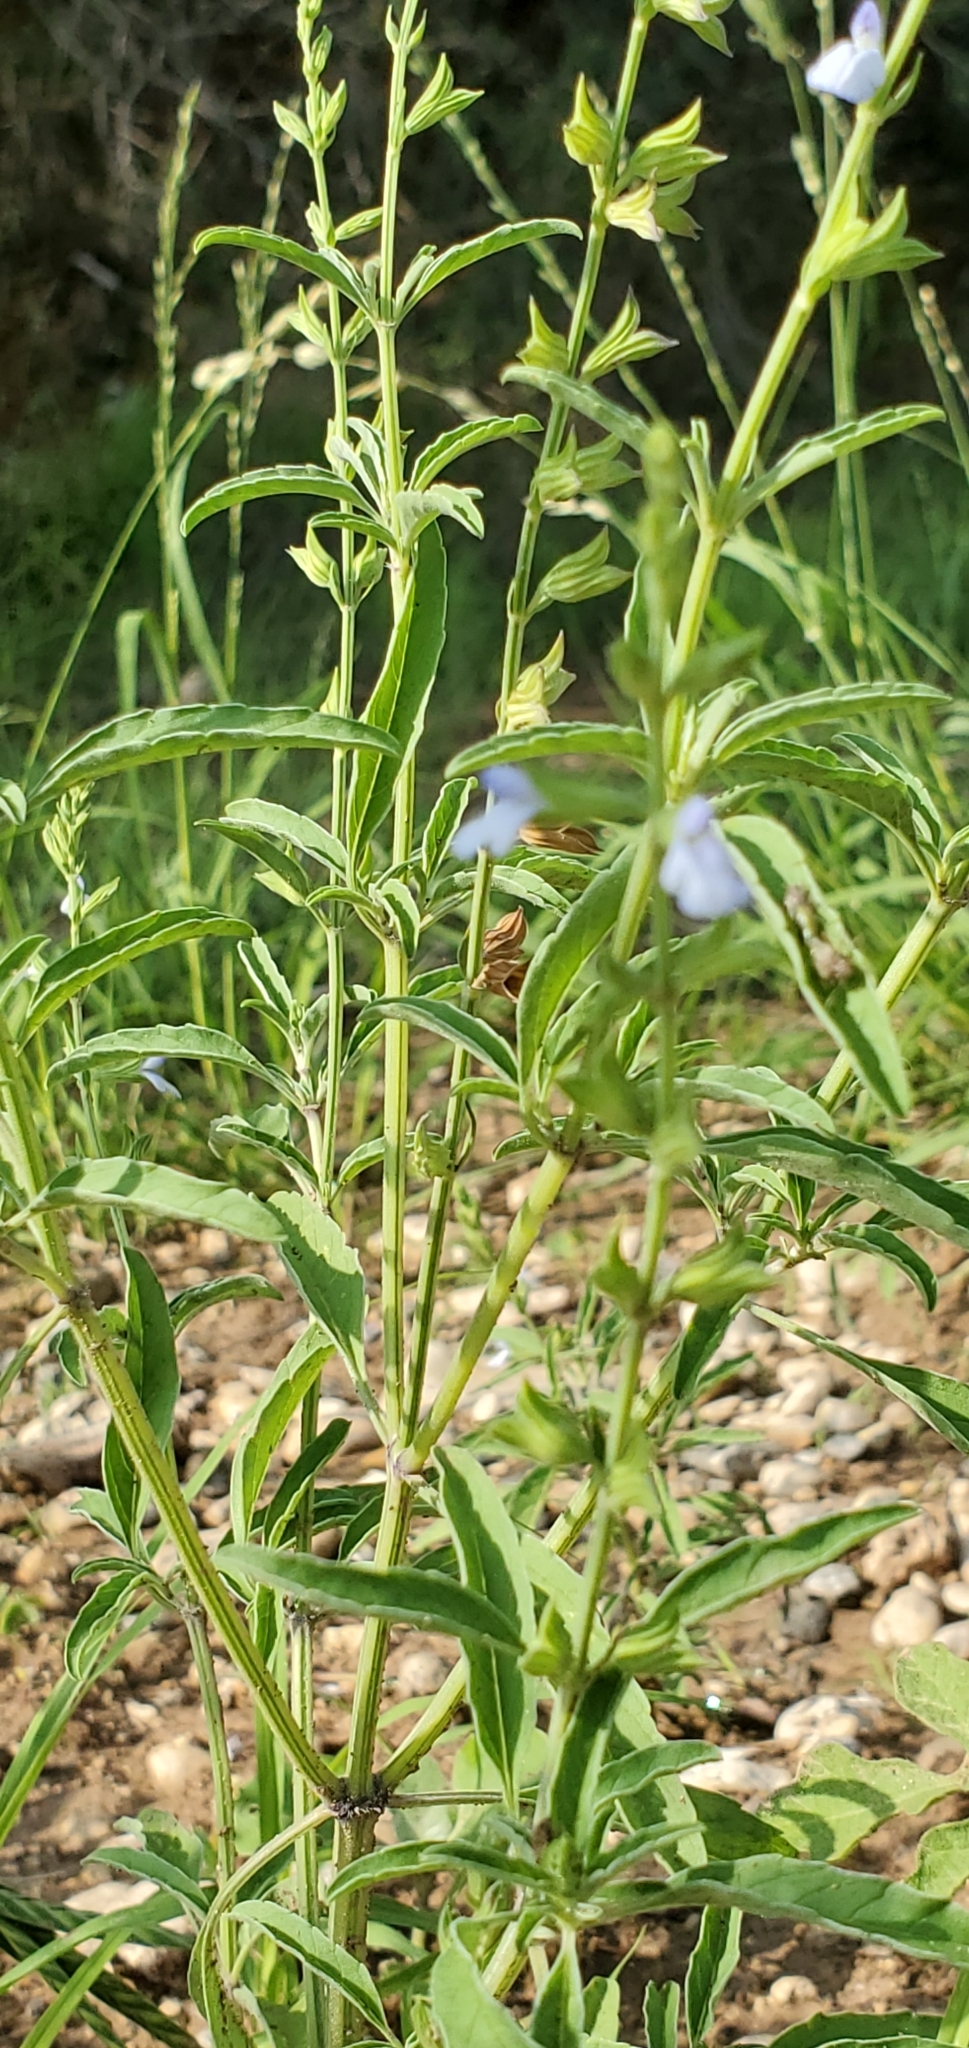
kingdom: Plantae
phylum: Tracheophyta
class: Magnoliopsida
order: Lamiales
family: Lamiaceae
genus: Salvia
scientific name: Salvia reflexa
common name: Mintweed
